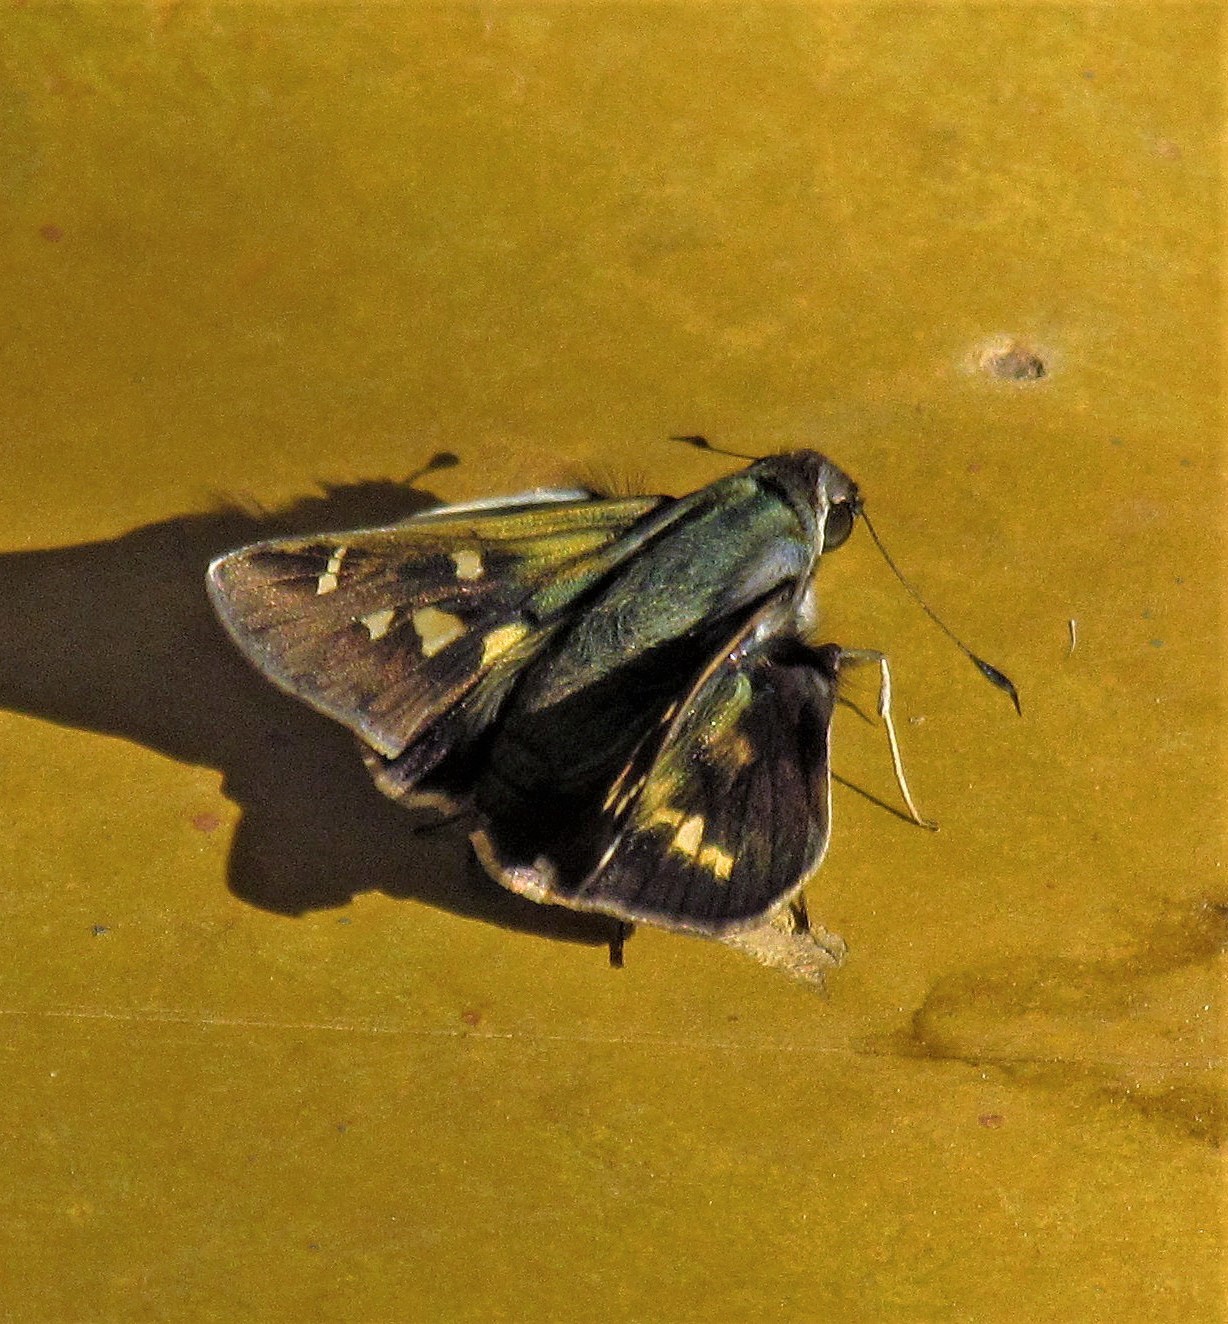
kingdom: Animalia
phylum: Arthropoda
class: Insecta
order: Lepidoptera
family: Hesperiidae
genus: Thespieus
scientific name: Thespieus ethemides
